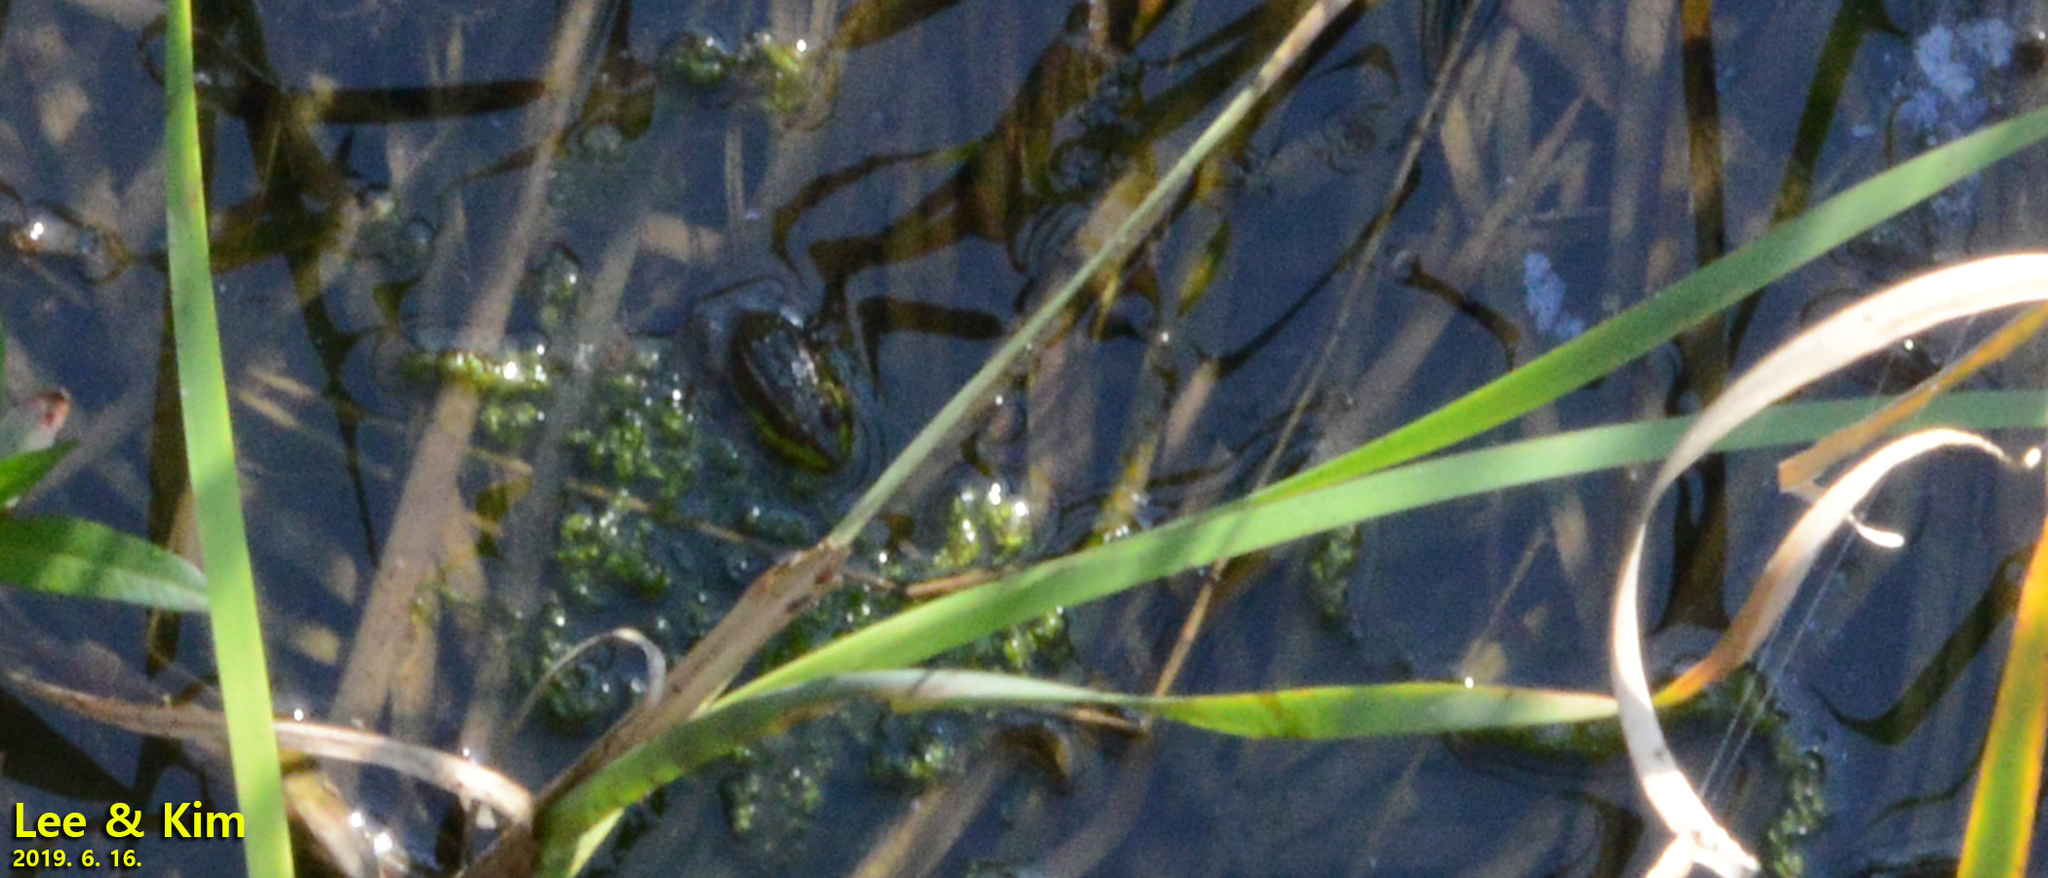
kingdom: Animalia
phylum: Chordata
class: Amphibia
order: Anura
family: Ranidae
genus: Pelophylax
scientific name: Pelophylax chosenicus
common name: Gold-spotted pond frog
